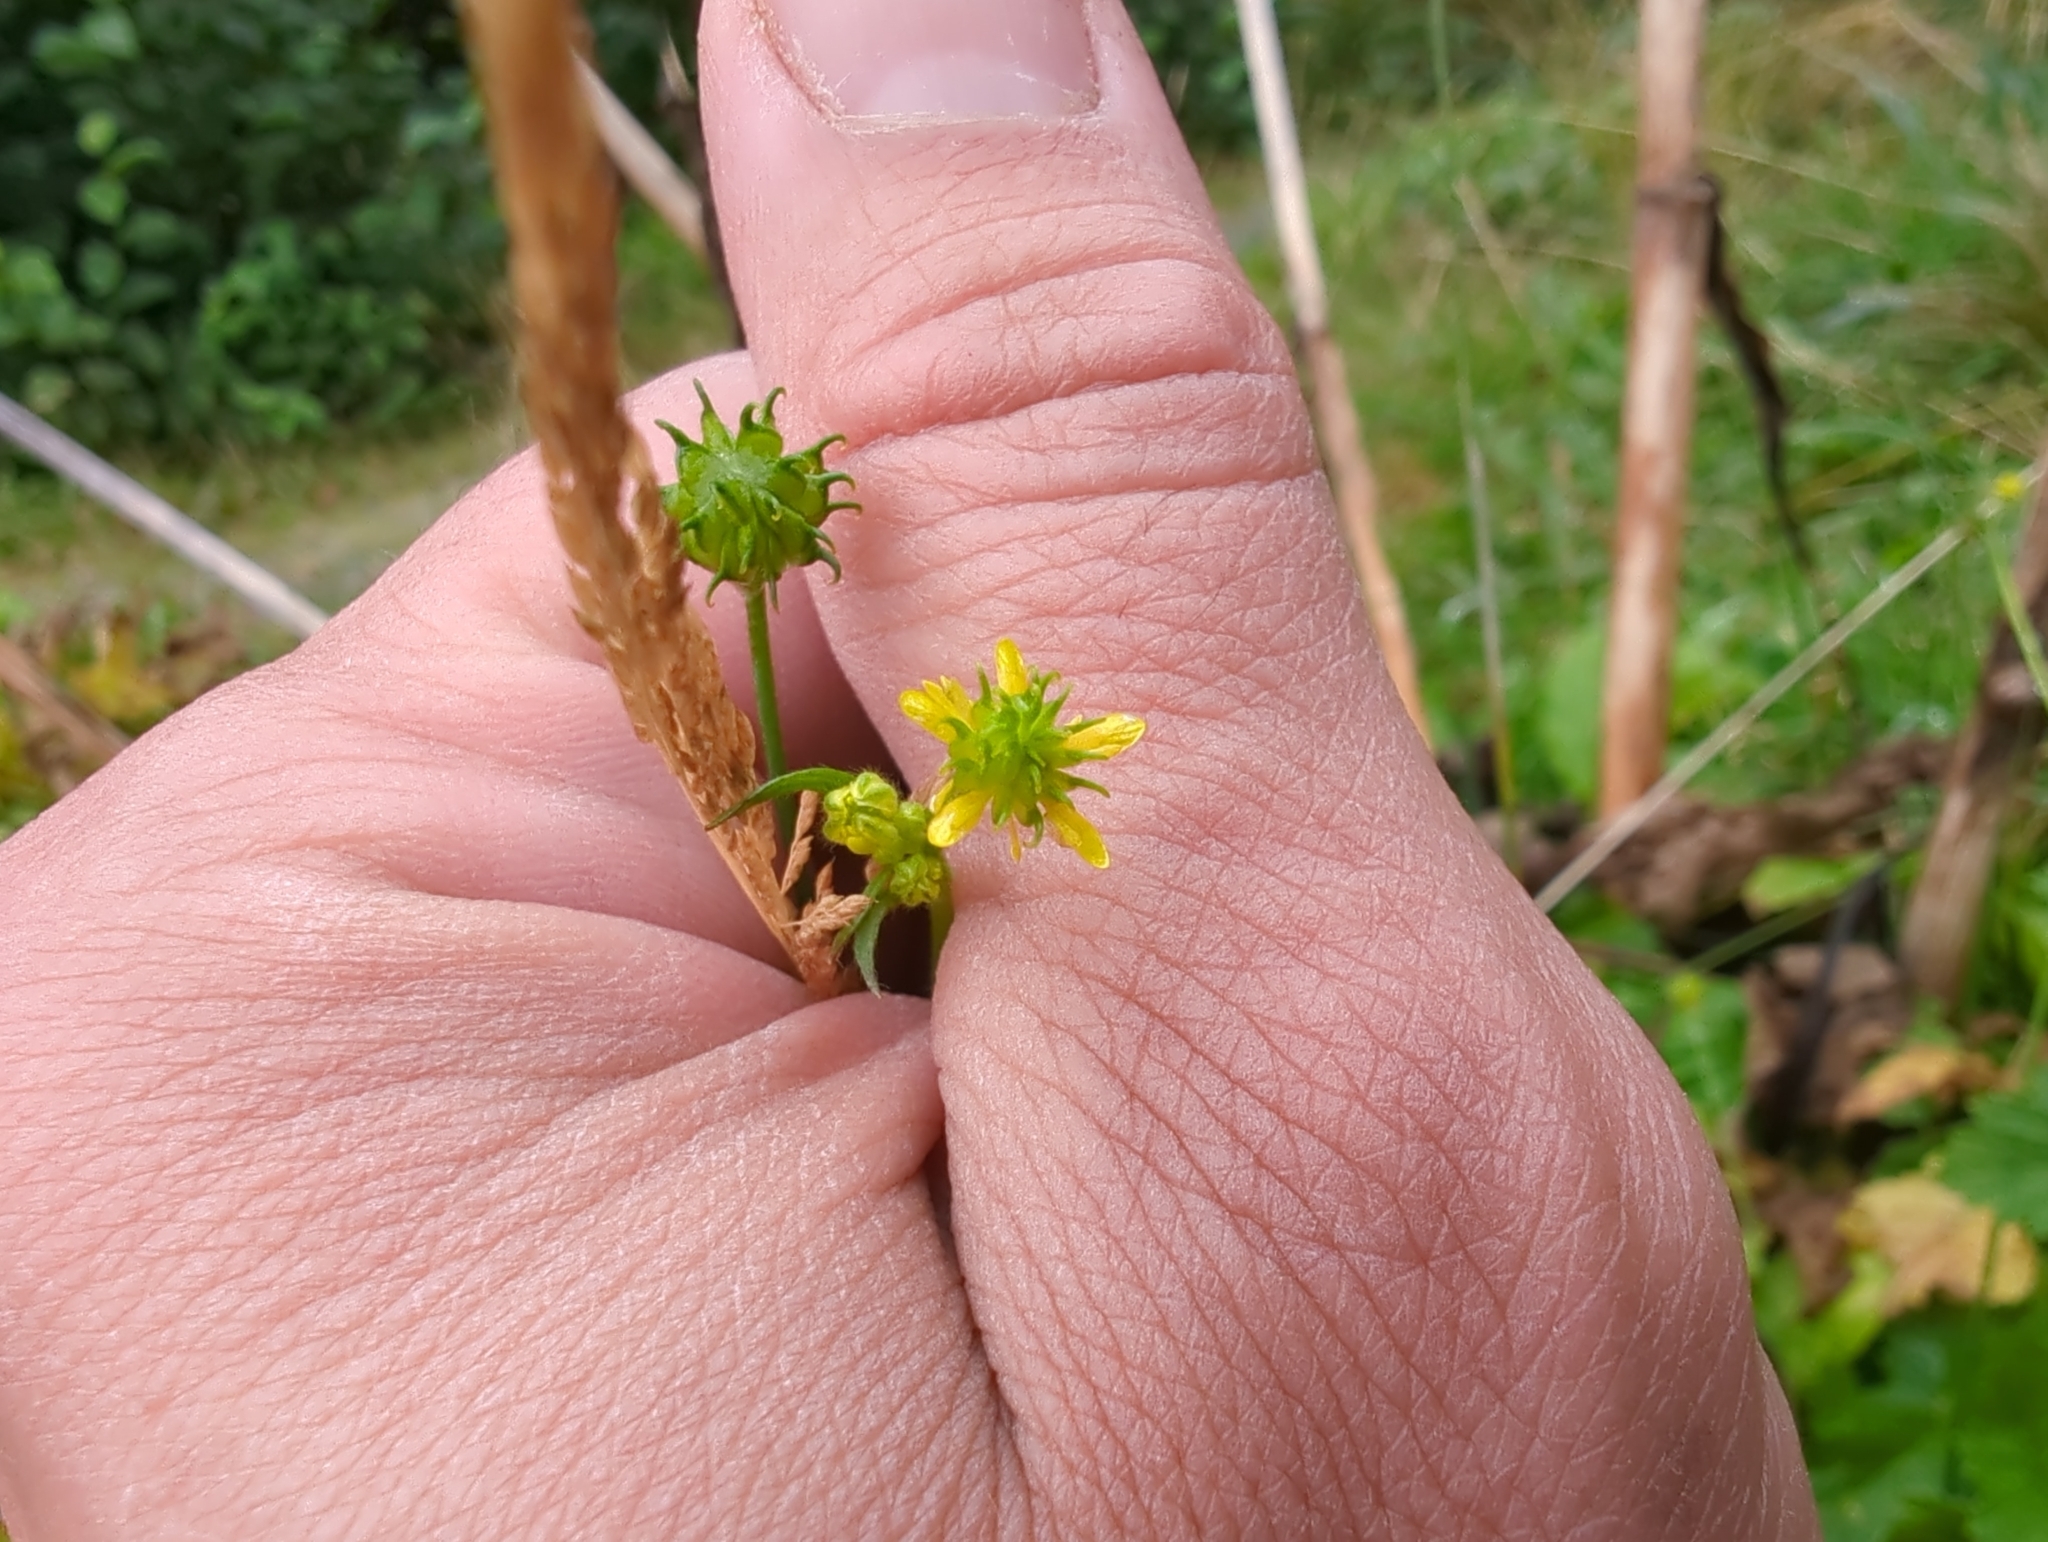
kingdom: Plantae
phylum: Tracheophyta
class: Magnoliopsida
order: Ranunculales
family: Ranunculaceae
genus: Ranunculus
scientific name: Ranunculus uncinatus
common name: Little buttercup
